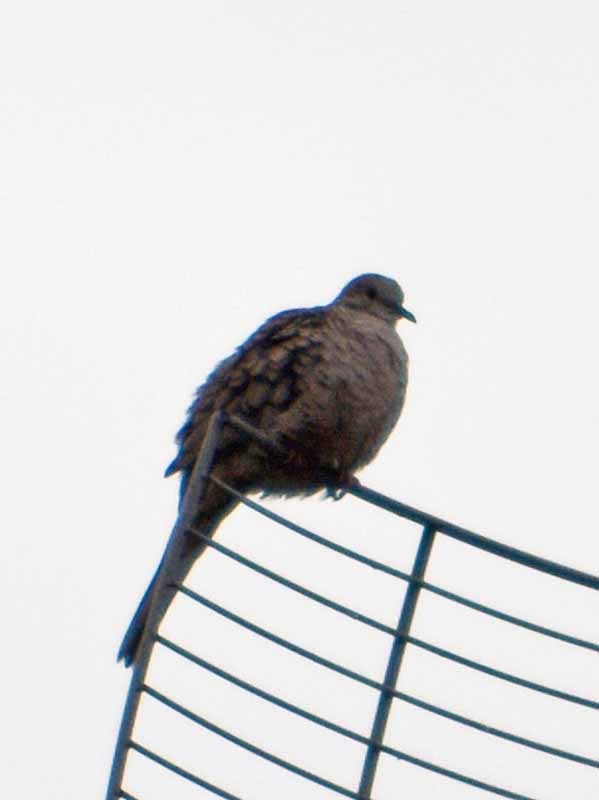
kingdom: Animalia
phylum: Chordata
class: Aves
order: Columbiformes
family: Columbidae
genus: Columbina
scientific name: Columbina inca
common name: Inca dove
